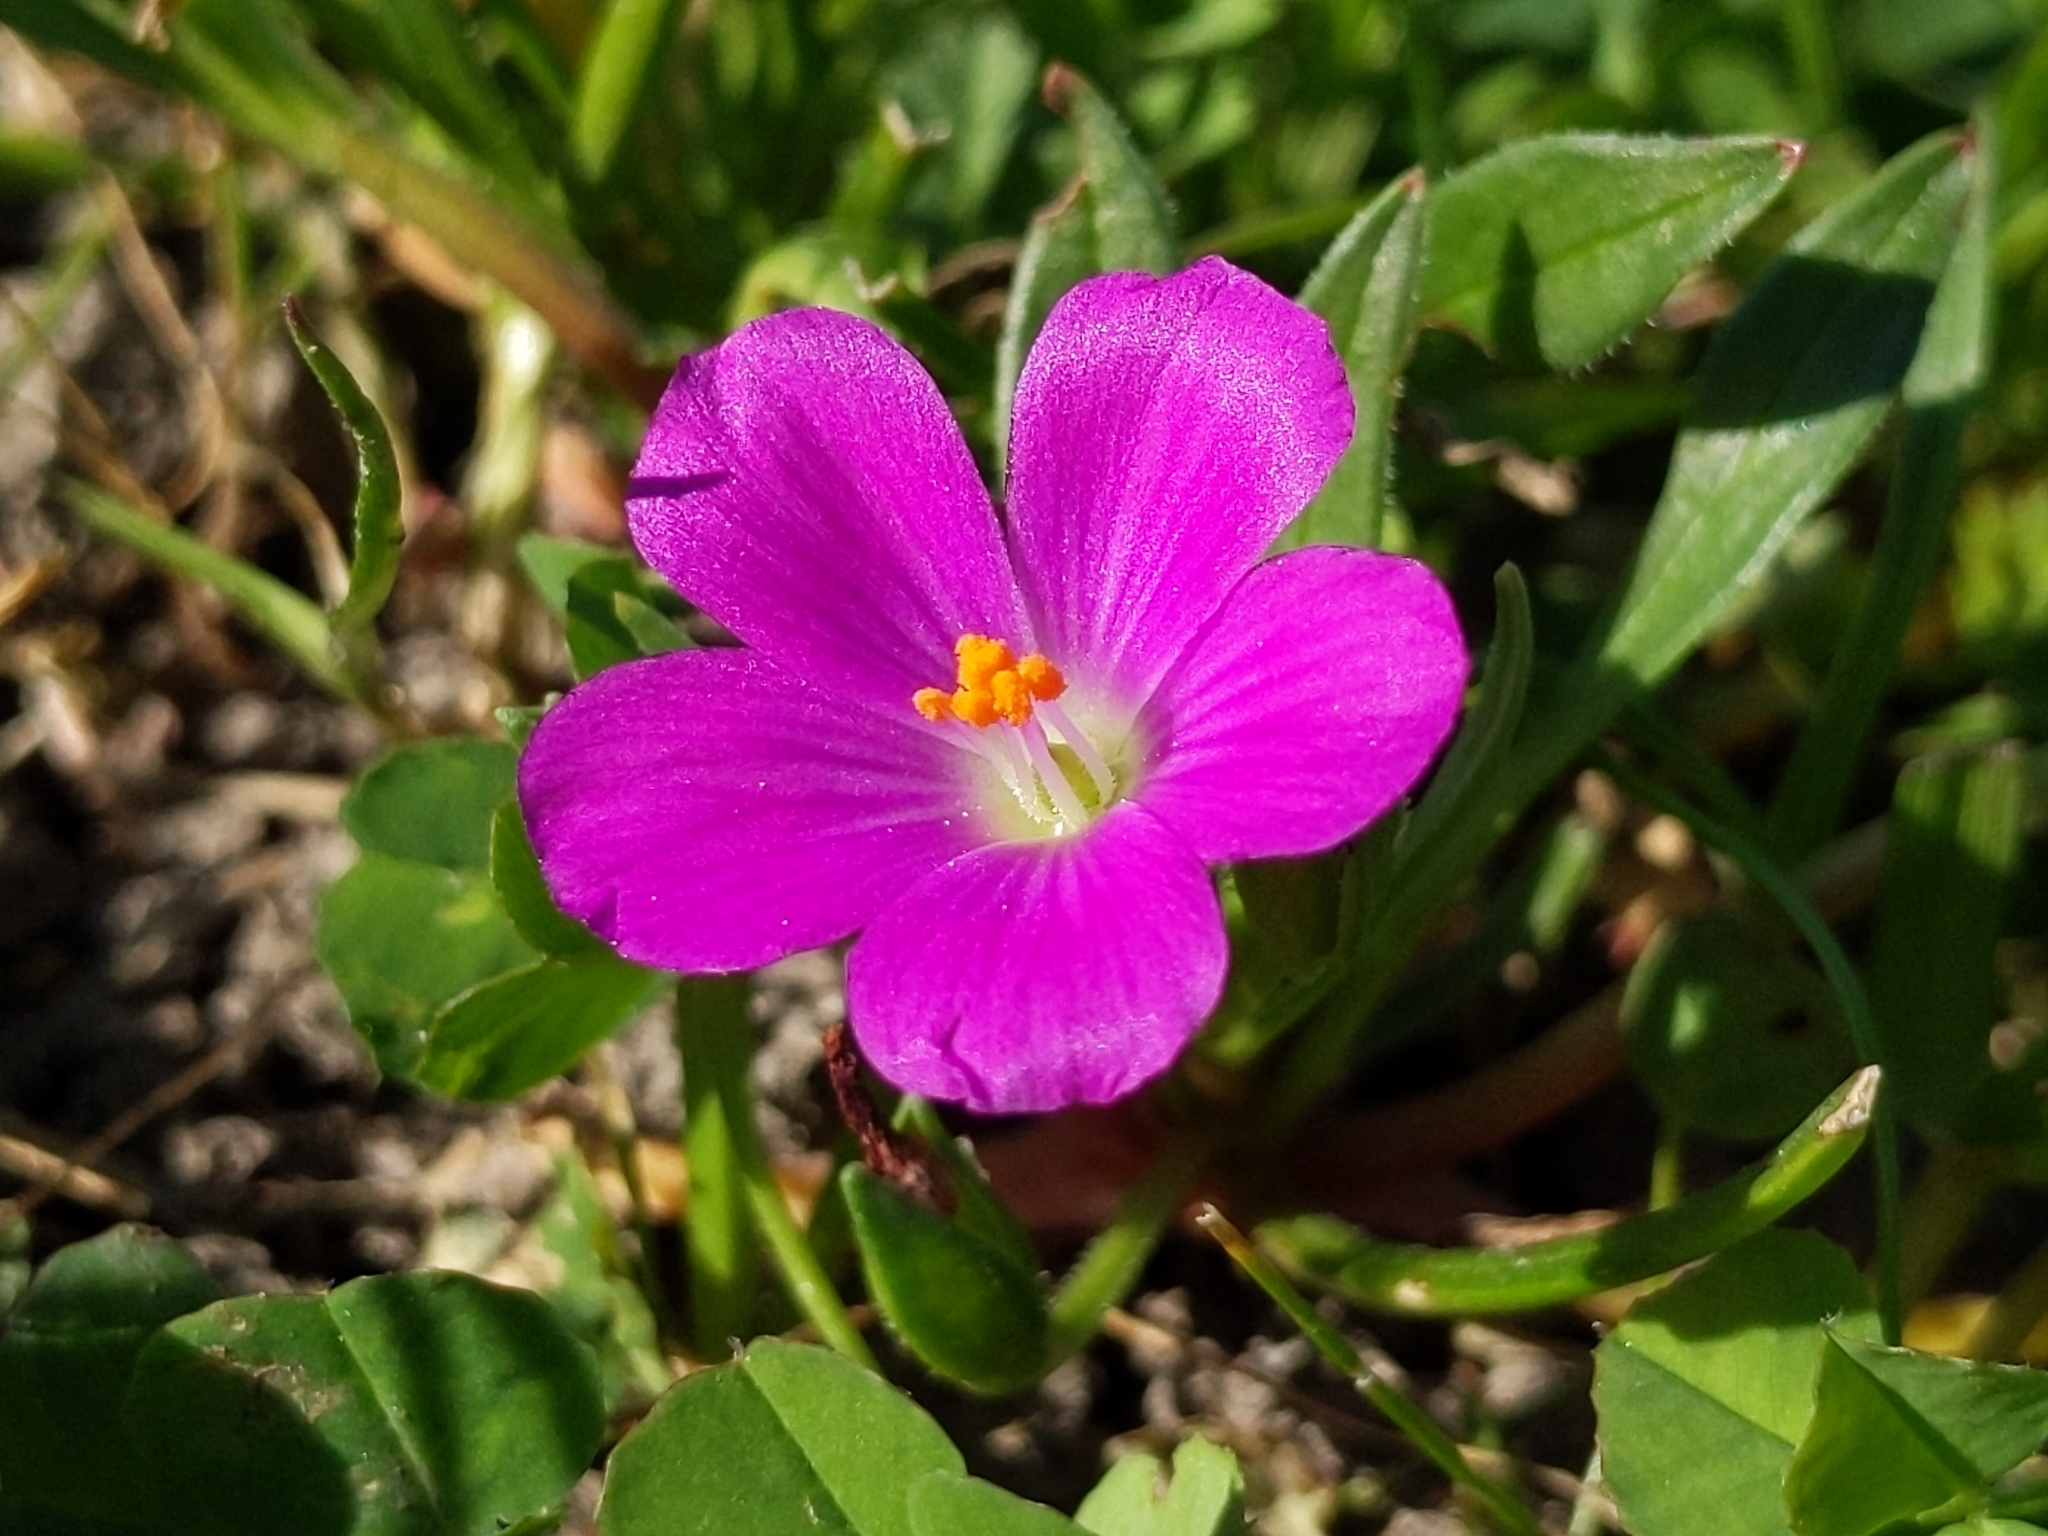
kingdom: Plantae
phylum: Tracheophyta
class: Magnoliopsida
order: Caryophyllales
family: Montiaceae
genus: Calandrinia
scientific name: Calandrinia menziesii
